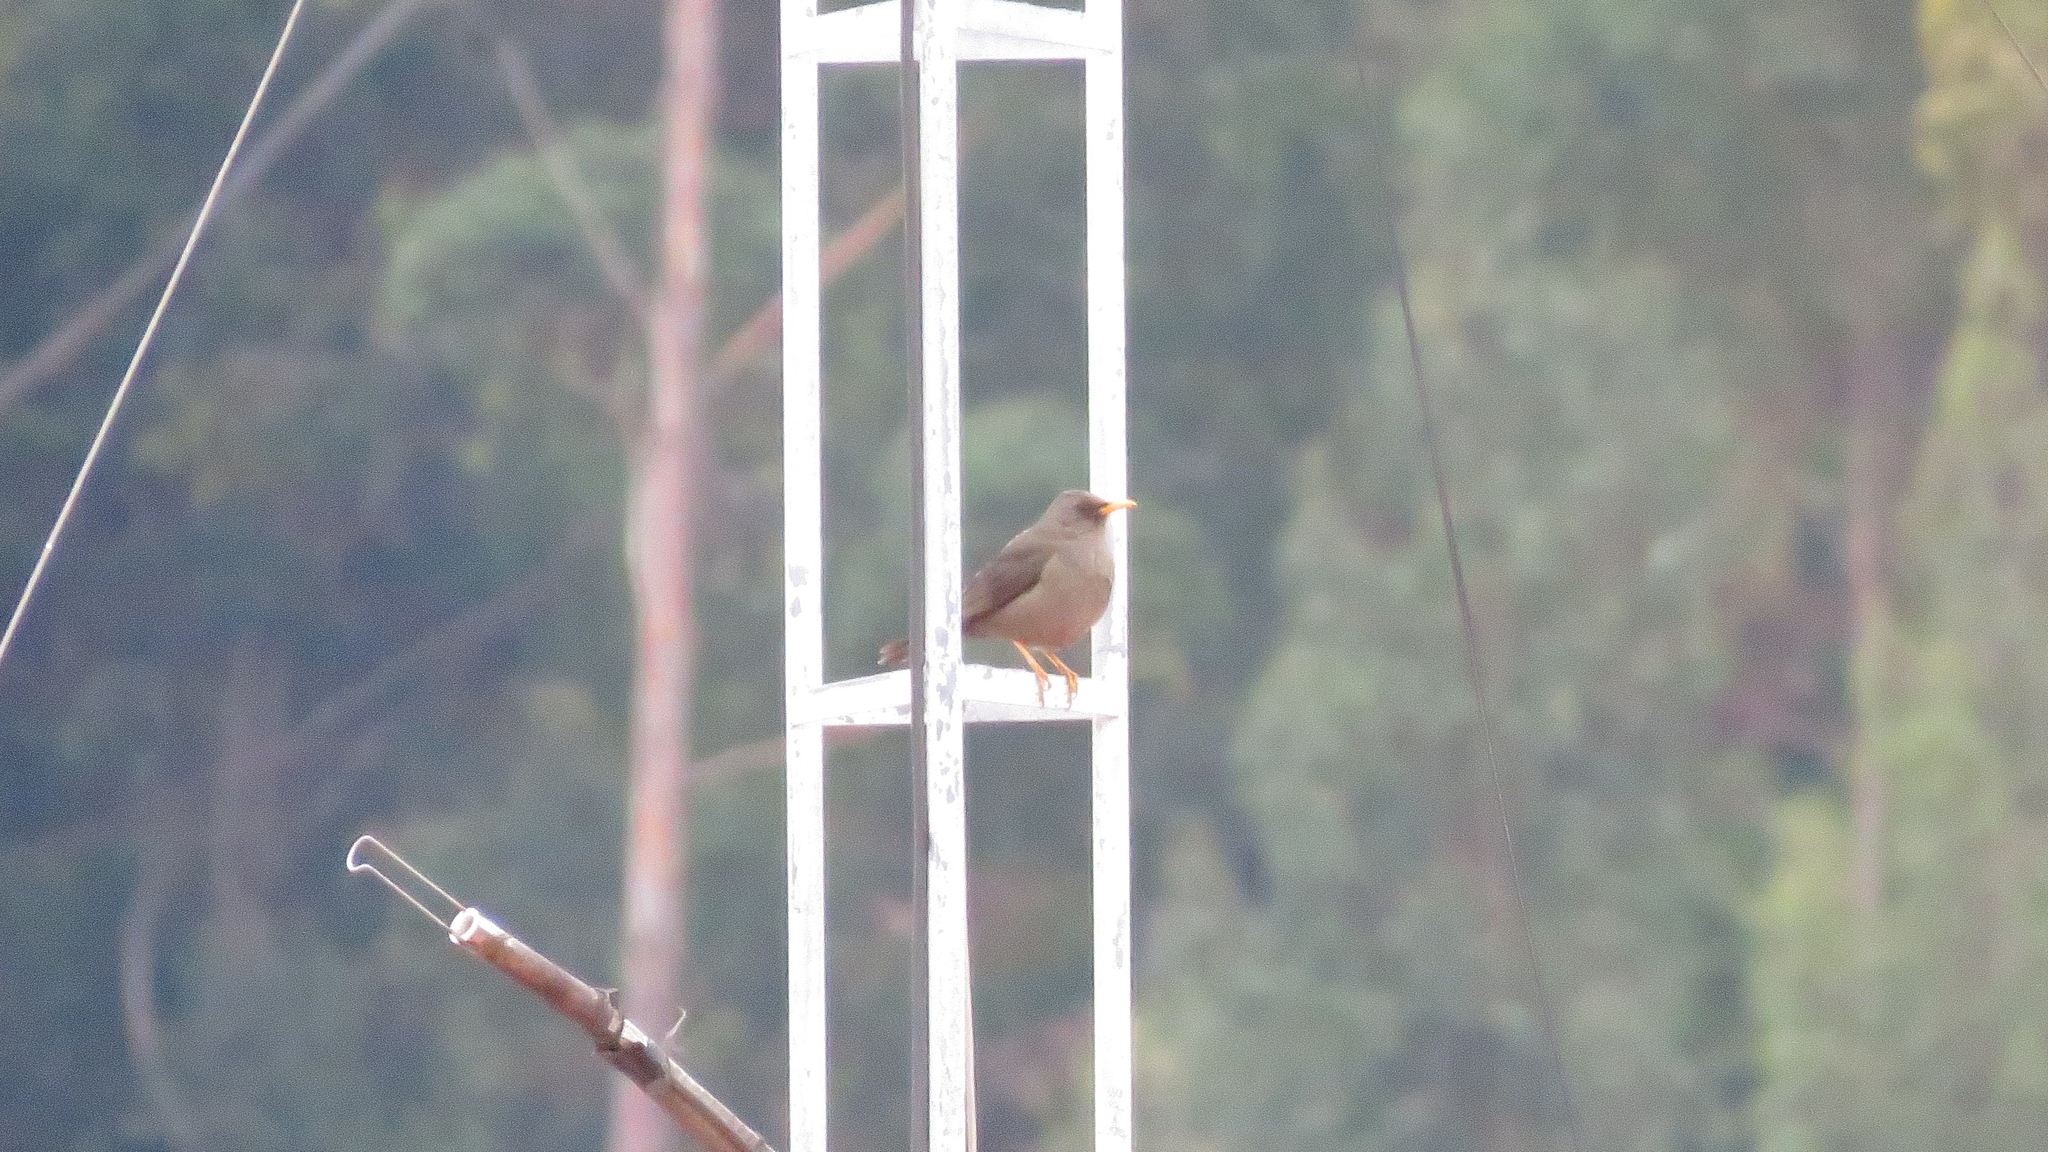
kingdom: Animalia
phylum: Chordata
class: Aves
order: Passeriformes
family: Turdidae
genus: Turdus
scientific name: Turdus chiguanco
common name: Chiguanco thrush
